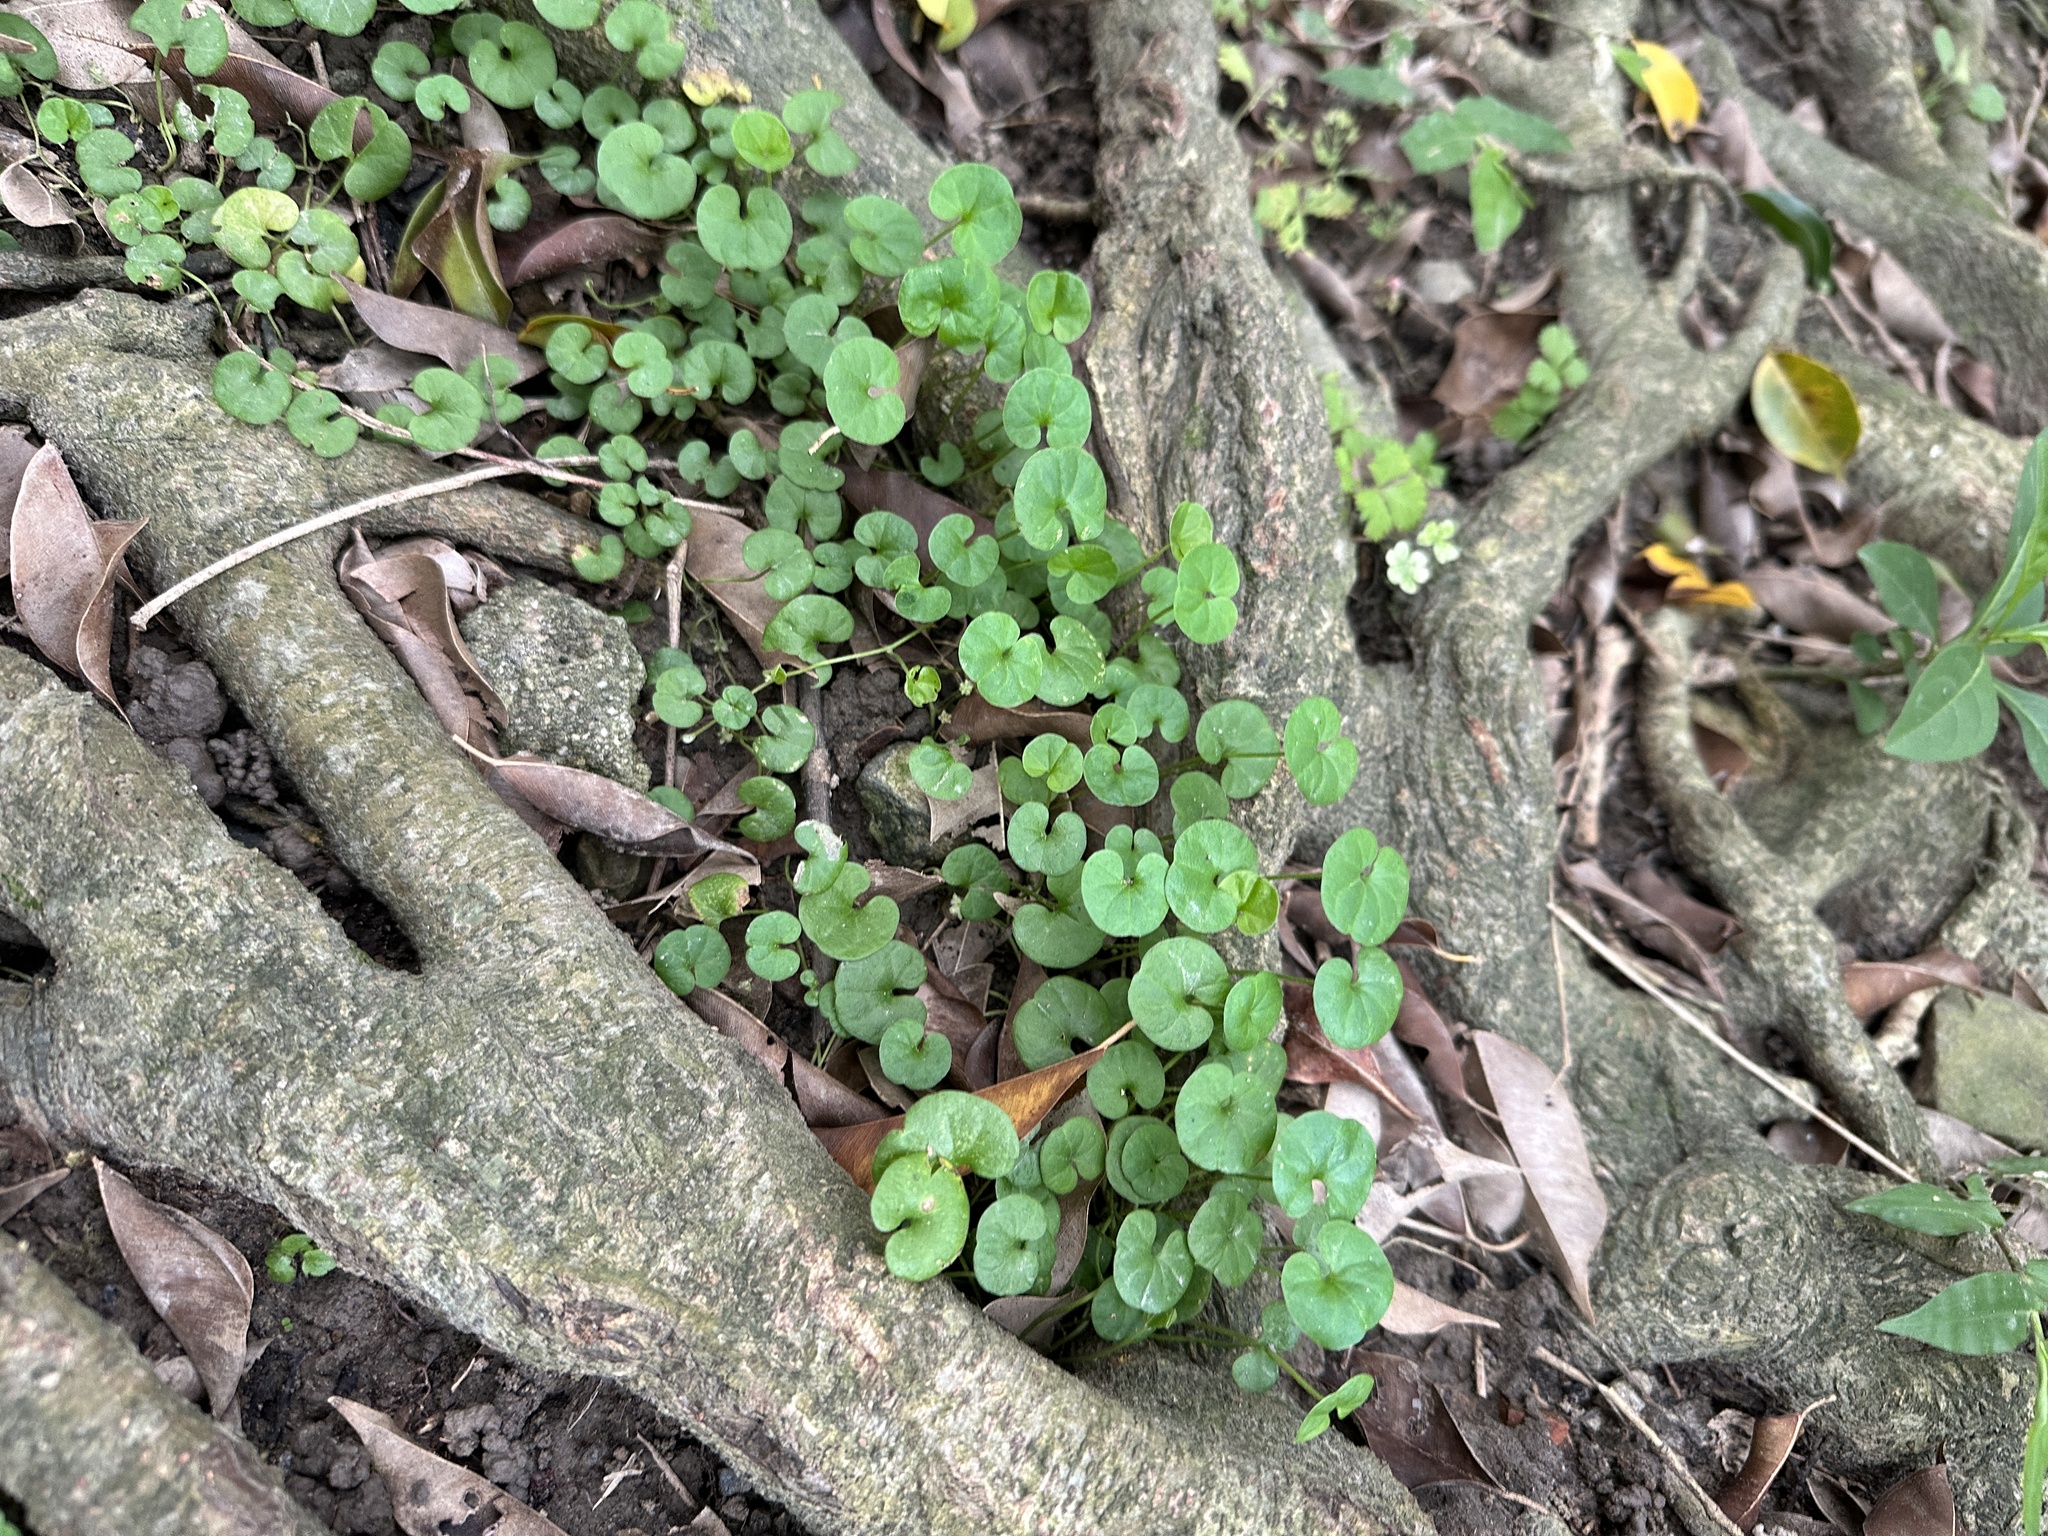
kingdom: Plantae
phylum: Tracheophyta
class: Magnoliopsida
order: Solanales
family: Convolvulaceae
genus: Dichondra
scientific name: Dichondra micrantha
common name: Kidneyweed
